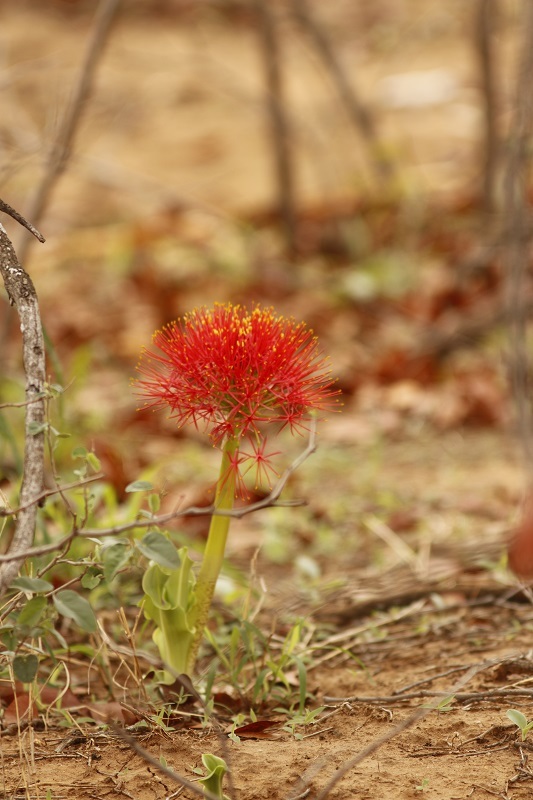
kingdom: Plantae
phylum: Tracheophyta
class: Liliopsida
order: Asparagales
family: Amaryllidaceae
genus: Scadoxus
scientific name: Scadoxus multiflorus
